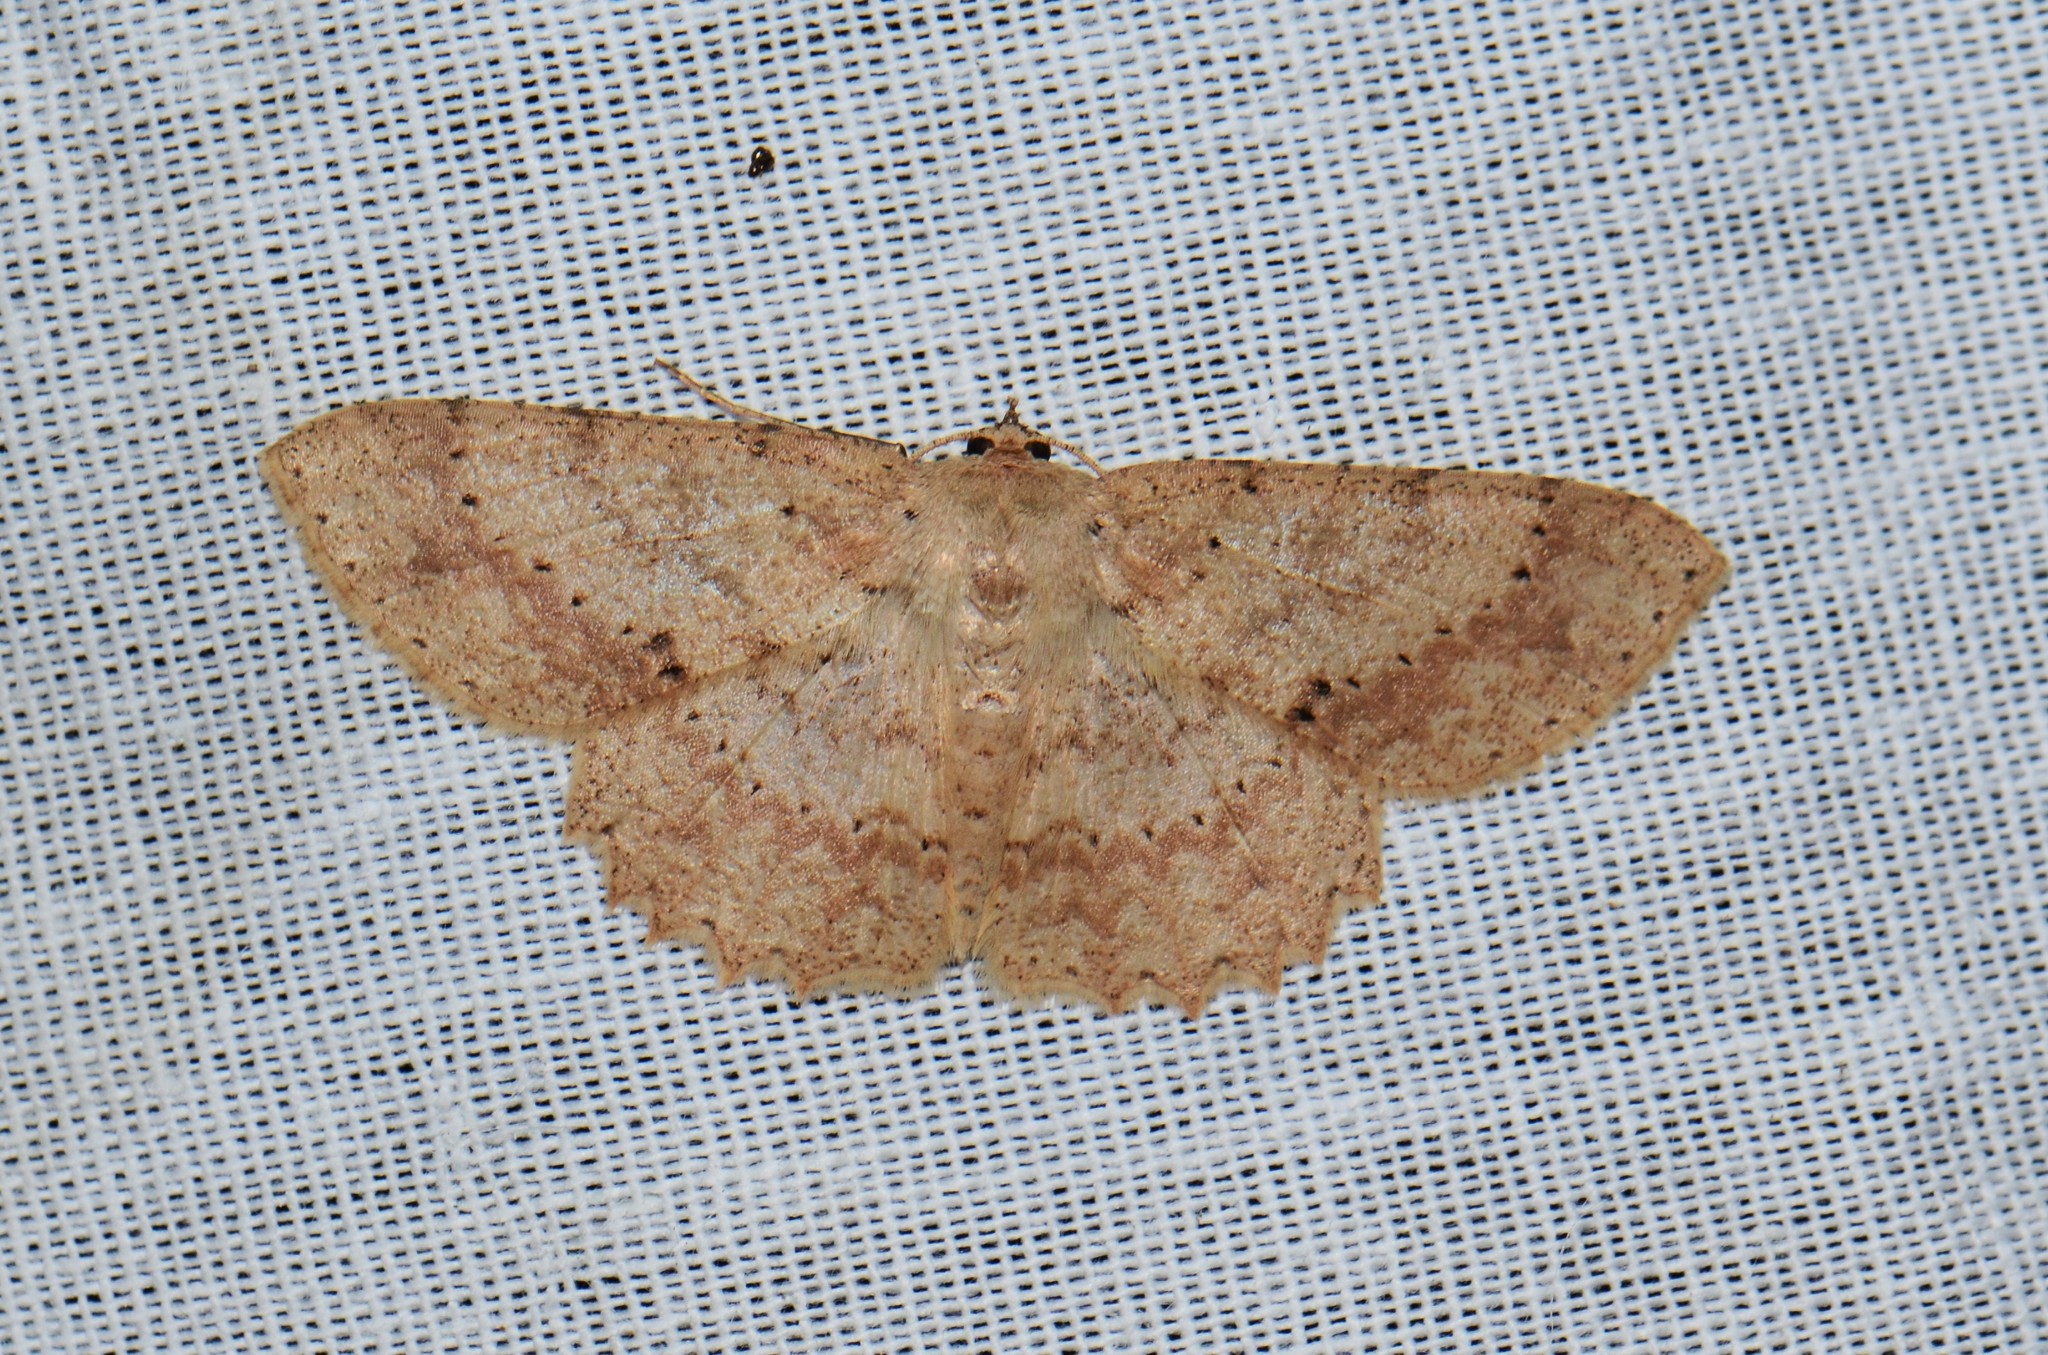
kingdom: Animalia
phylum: Arthropoda
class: Insecta
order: Lepidoptera
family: Geometridae
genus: Luxiaria
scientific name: Luxiaria emphatica
